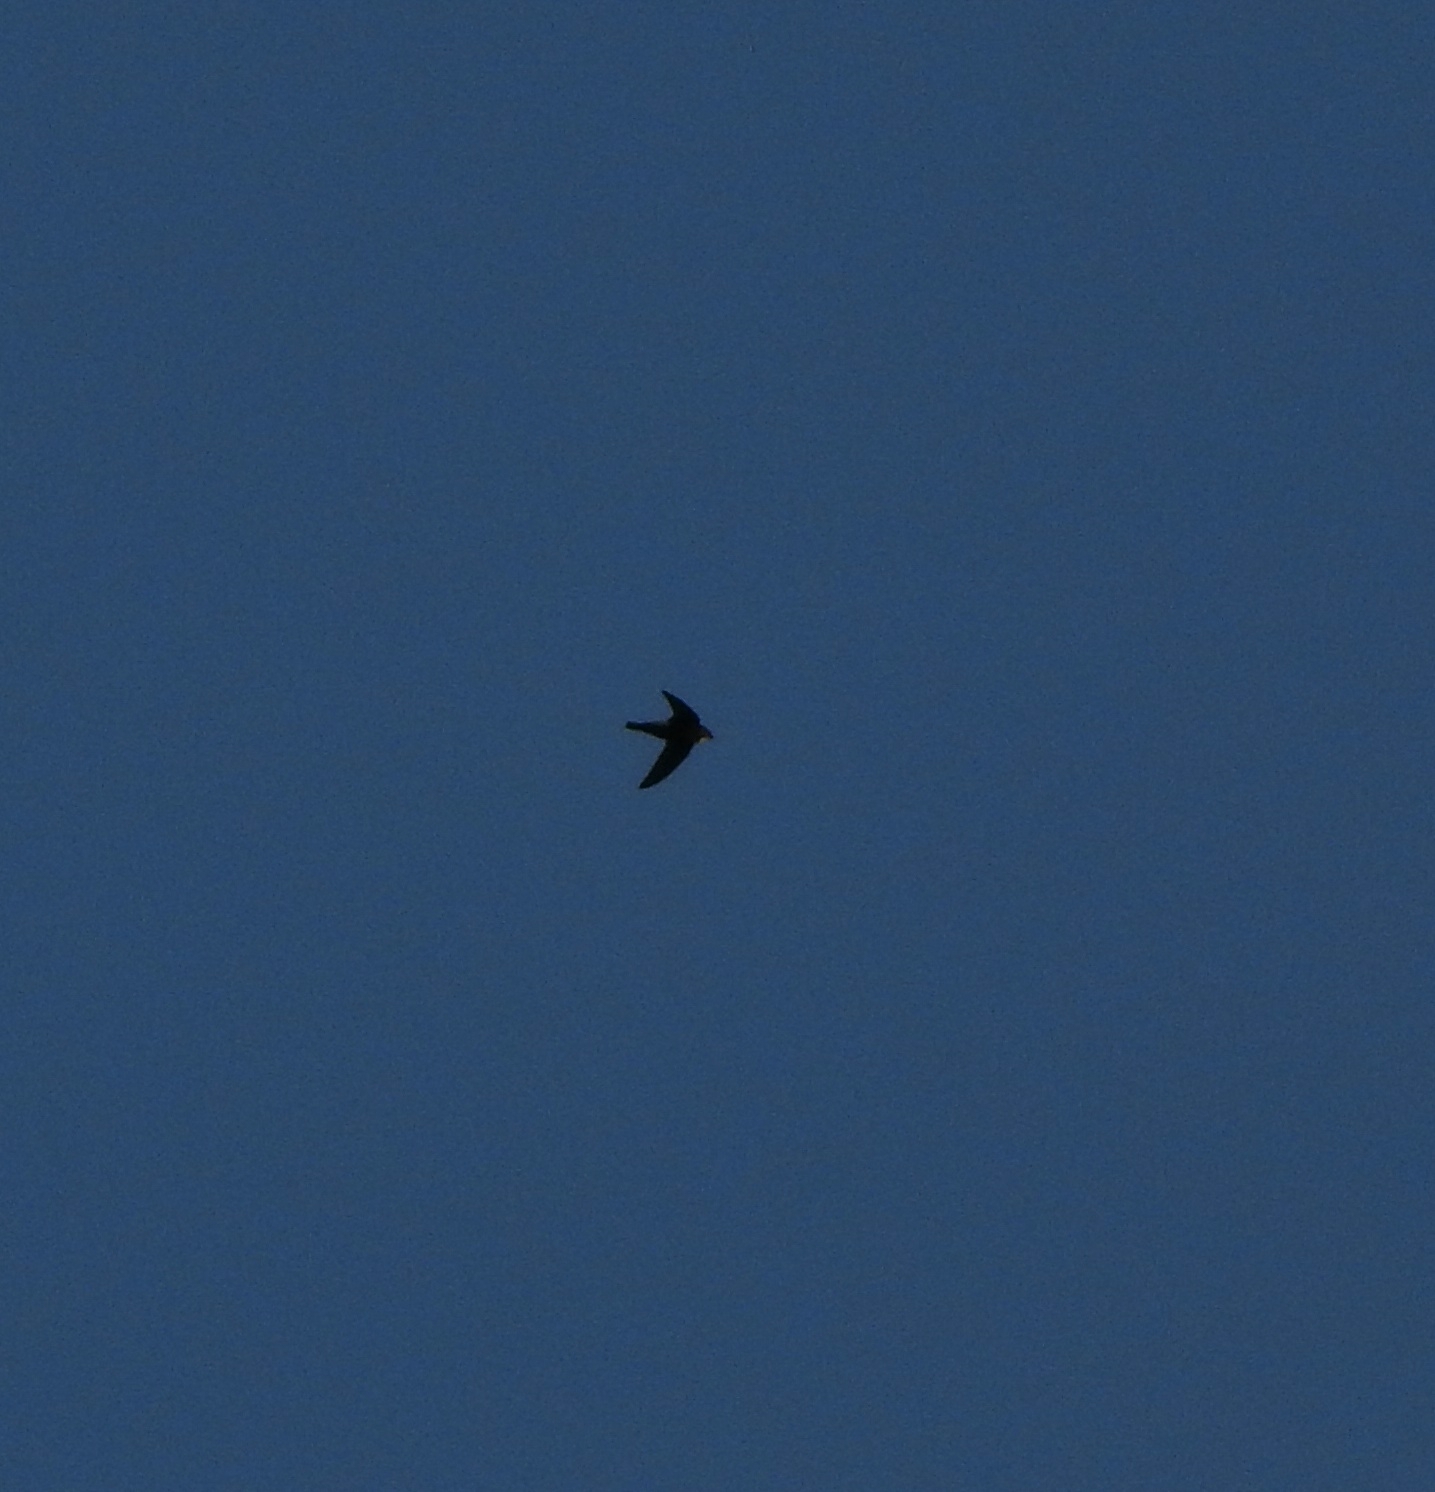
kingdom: Animalia
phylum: Chordata
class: Aves
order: Apodiformes
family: Apodidae
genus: Apus
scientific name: Apus affinis
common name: Little swift
